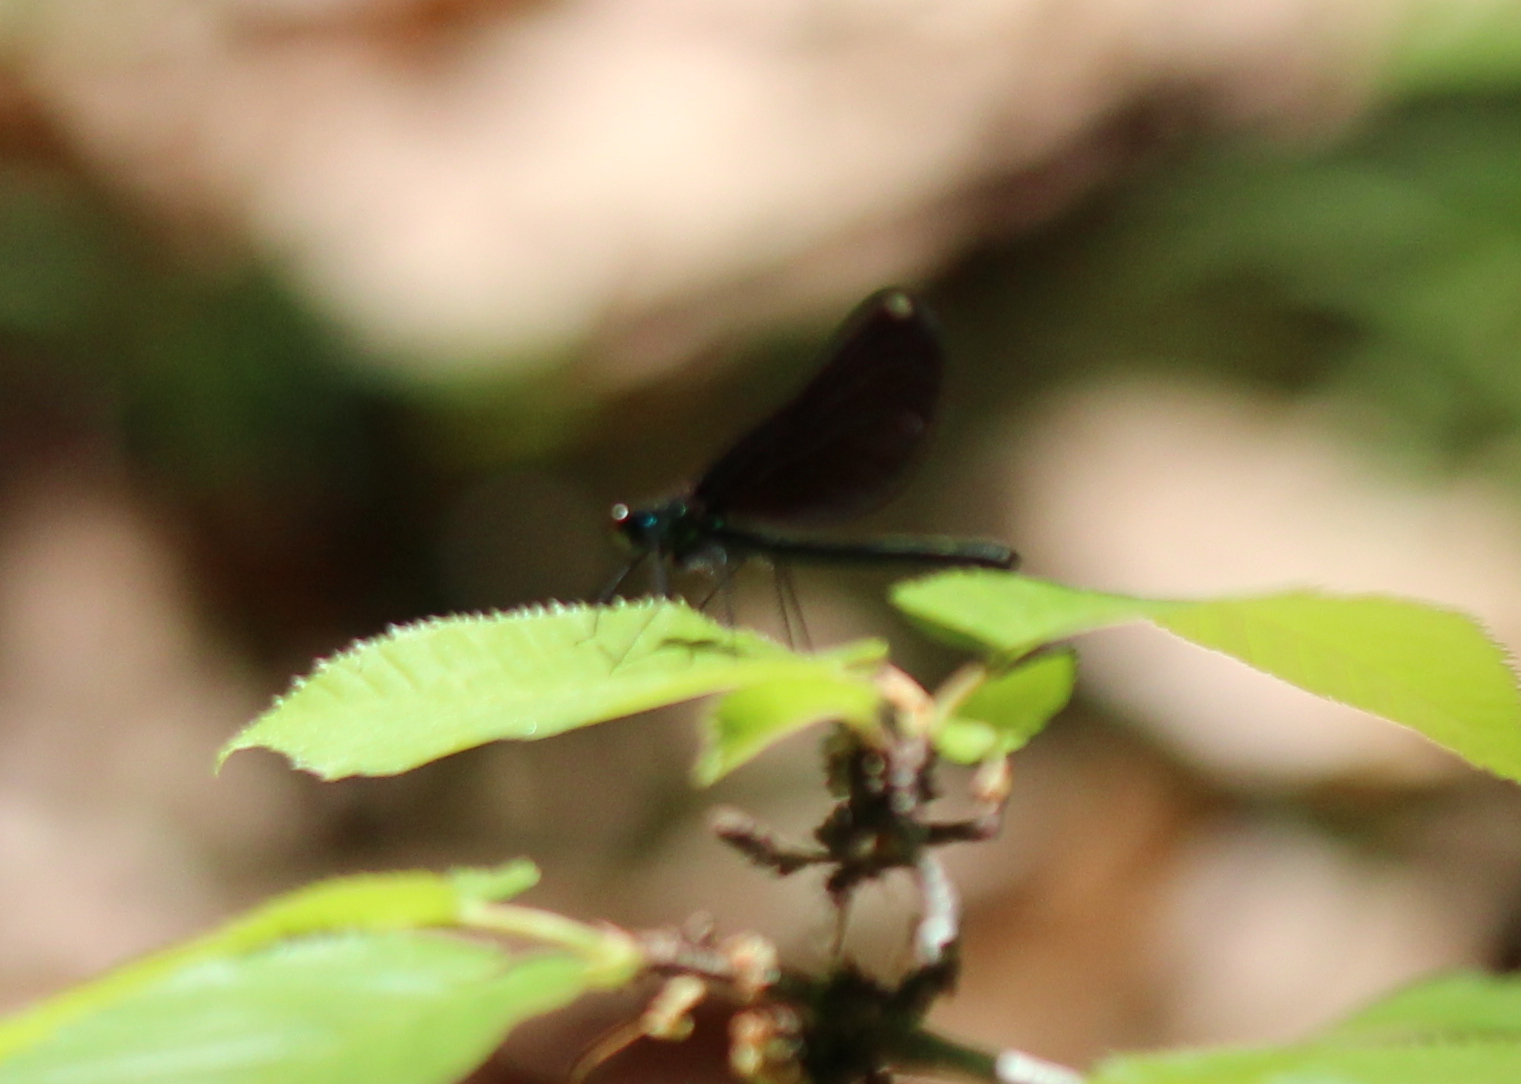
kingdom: Animalia
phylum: Arthropoda
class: Insecta
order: Odonata
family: Calopterygidae
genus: Calopteryx
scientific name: Calopteryx maculata
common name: Ebony jewelwing
